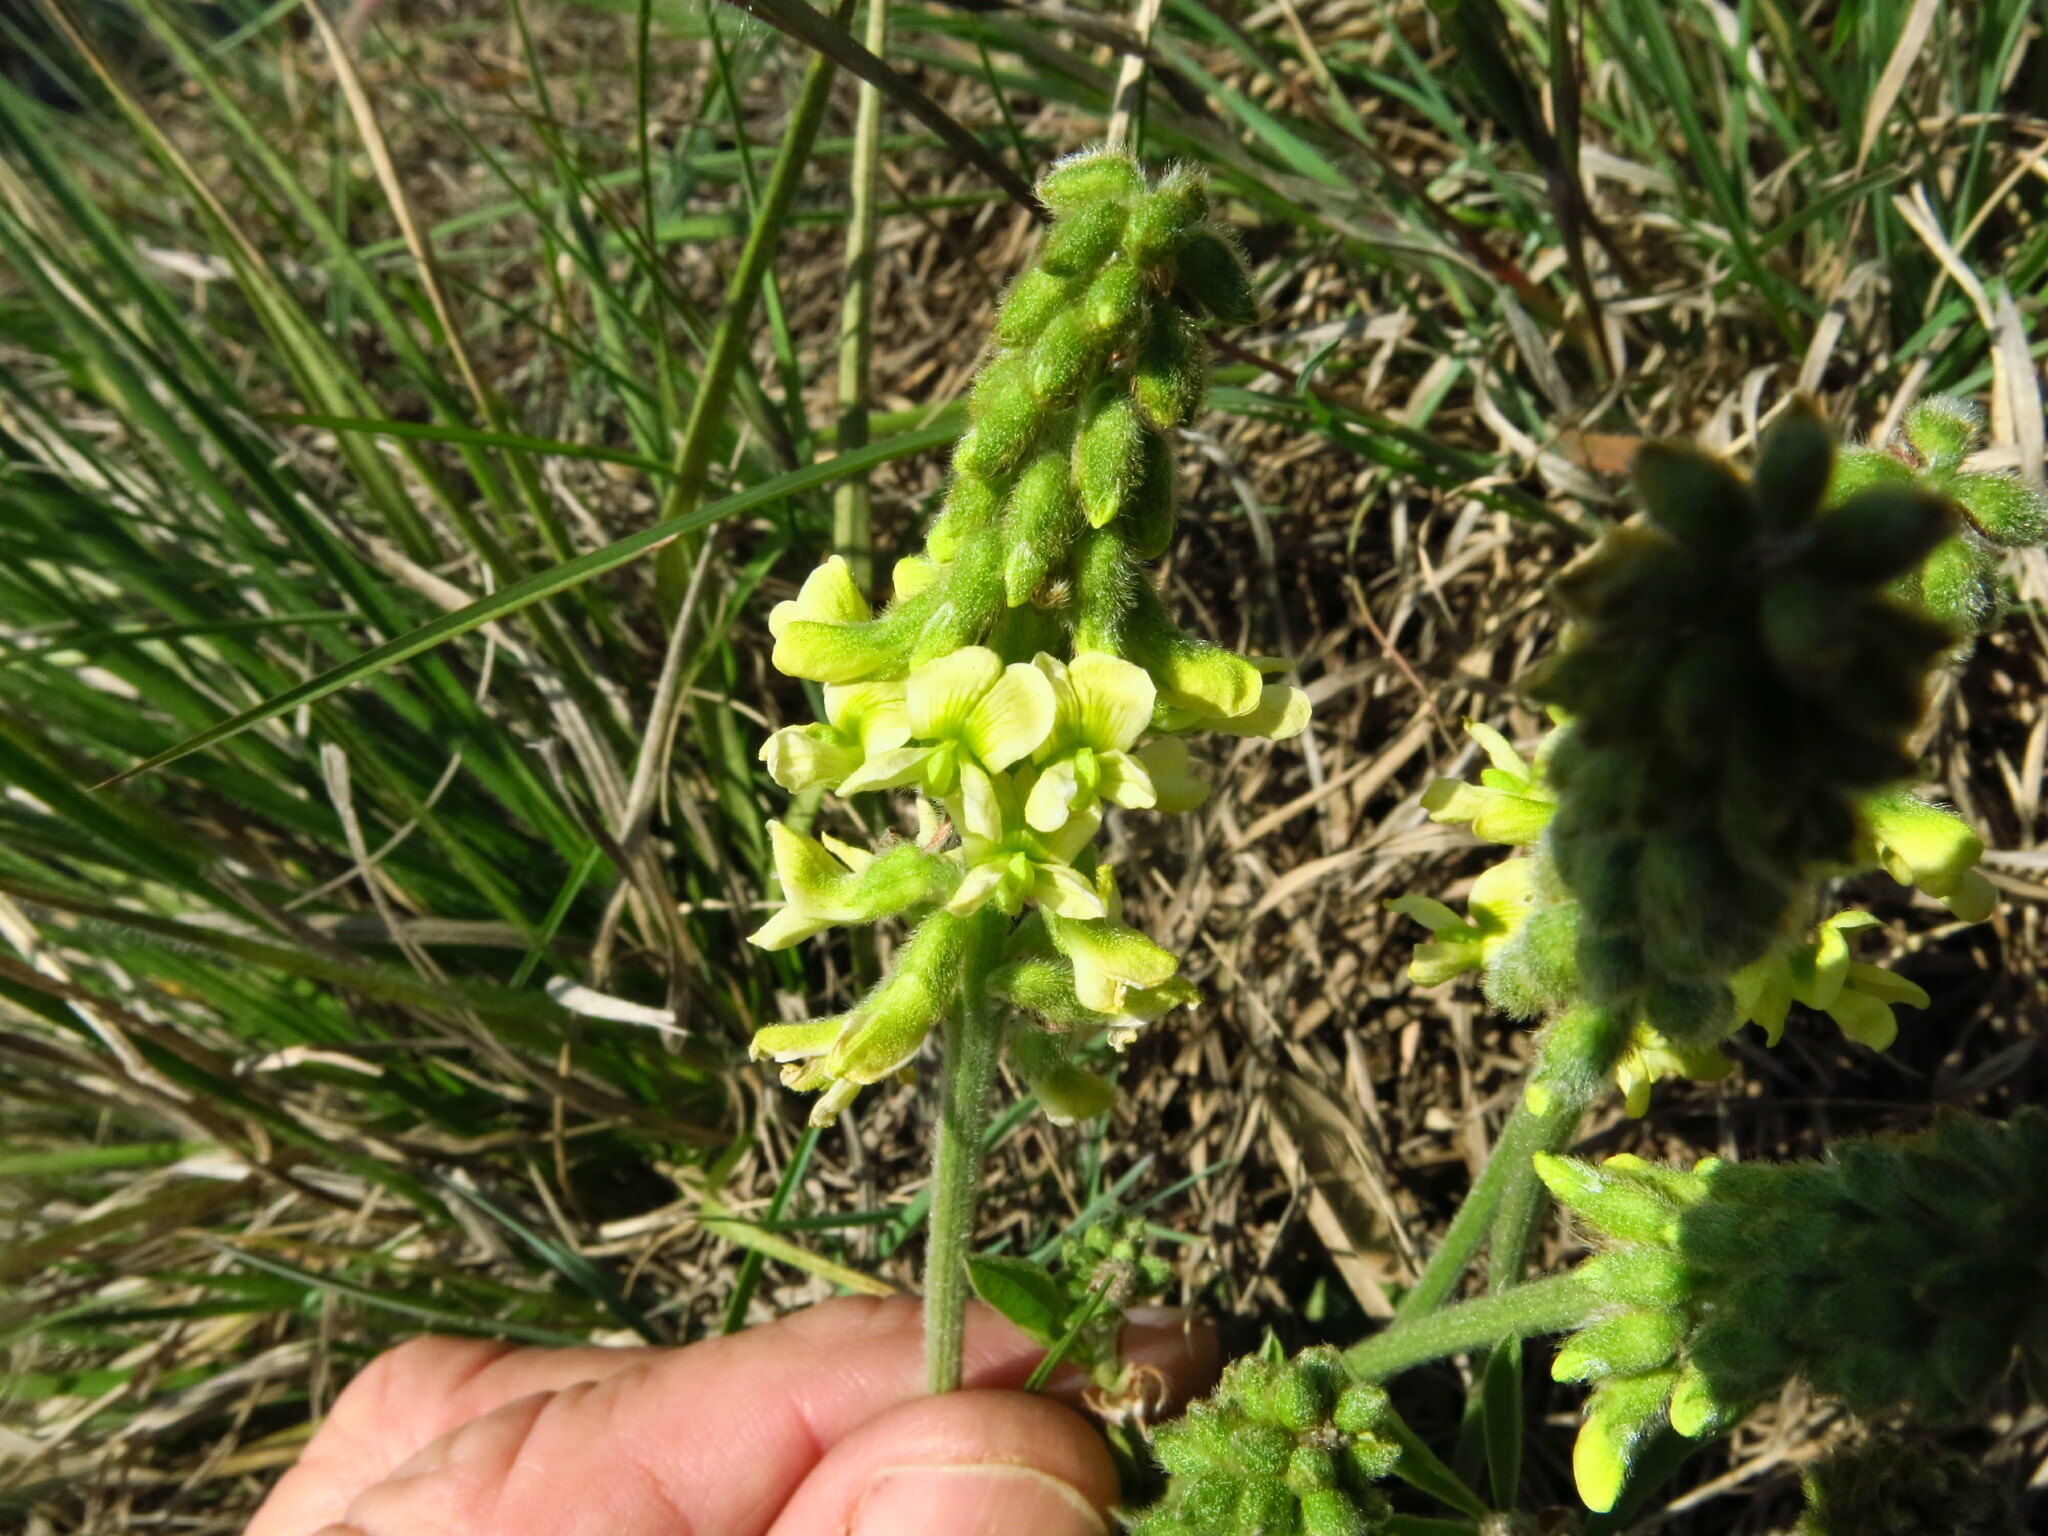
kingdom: Plantae
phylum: Tracheophyta
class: Magnoliopsida
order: Fabales
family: Fabaceae
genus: Eriosema
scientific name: Eriosema kraussianum
